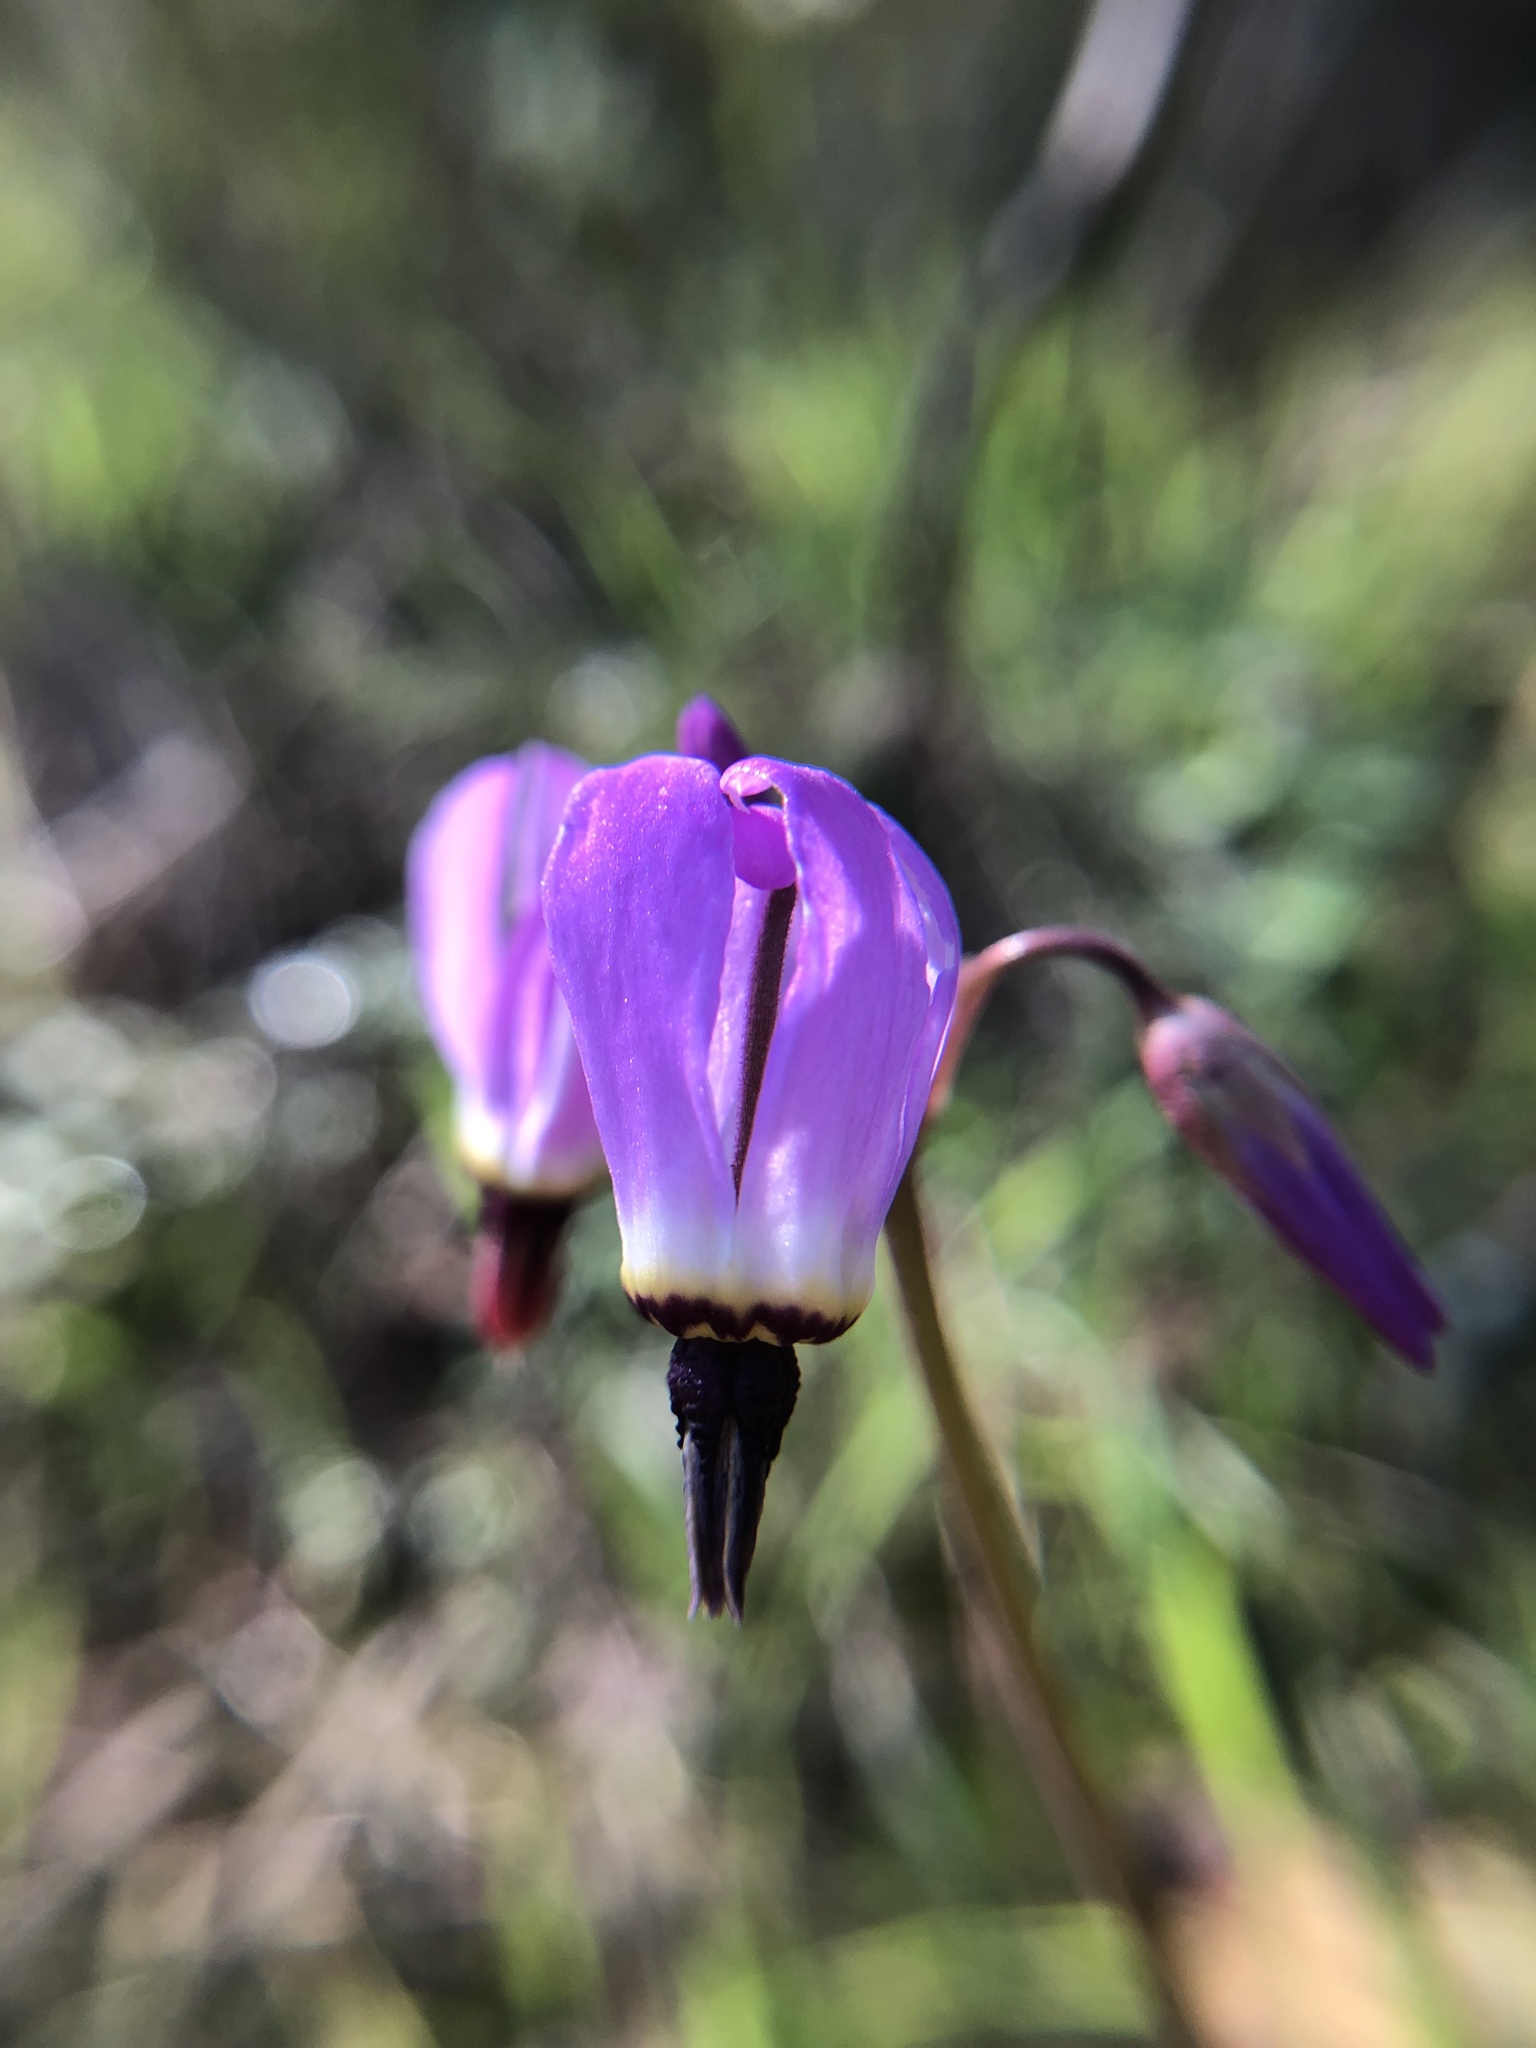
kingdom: Plantae
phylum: Tracheophyta
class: Magnoliopsida
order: Ericales
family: Primulaceae
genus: Dodecatheon
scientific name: Dodecatheon hendersonii
